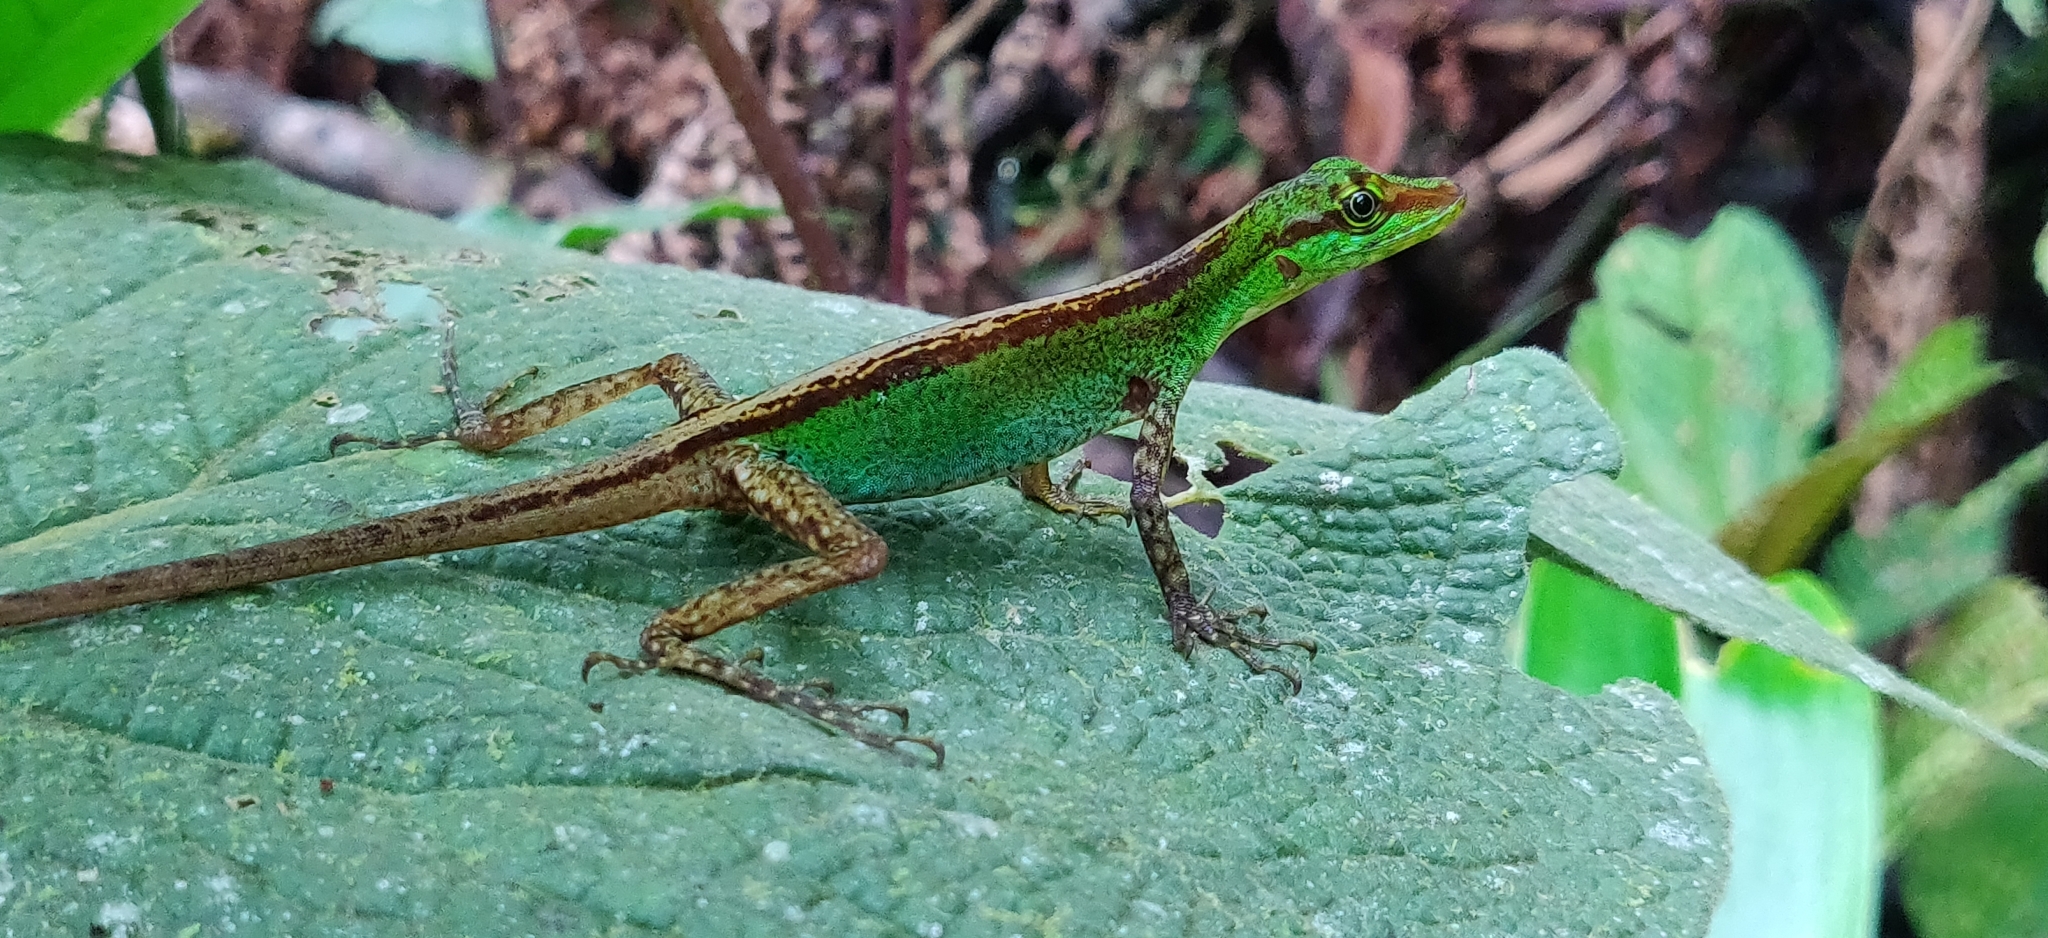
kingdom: Animalia
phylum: Chordata
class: Squamata
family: Dactyloidae
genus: Anolis
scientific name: Anolis ventrimaculatus
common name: Speckled anole
